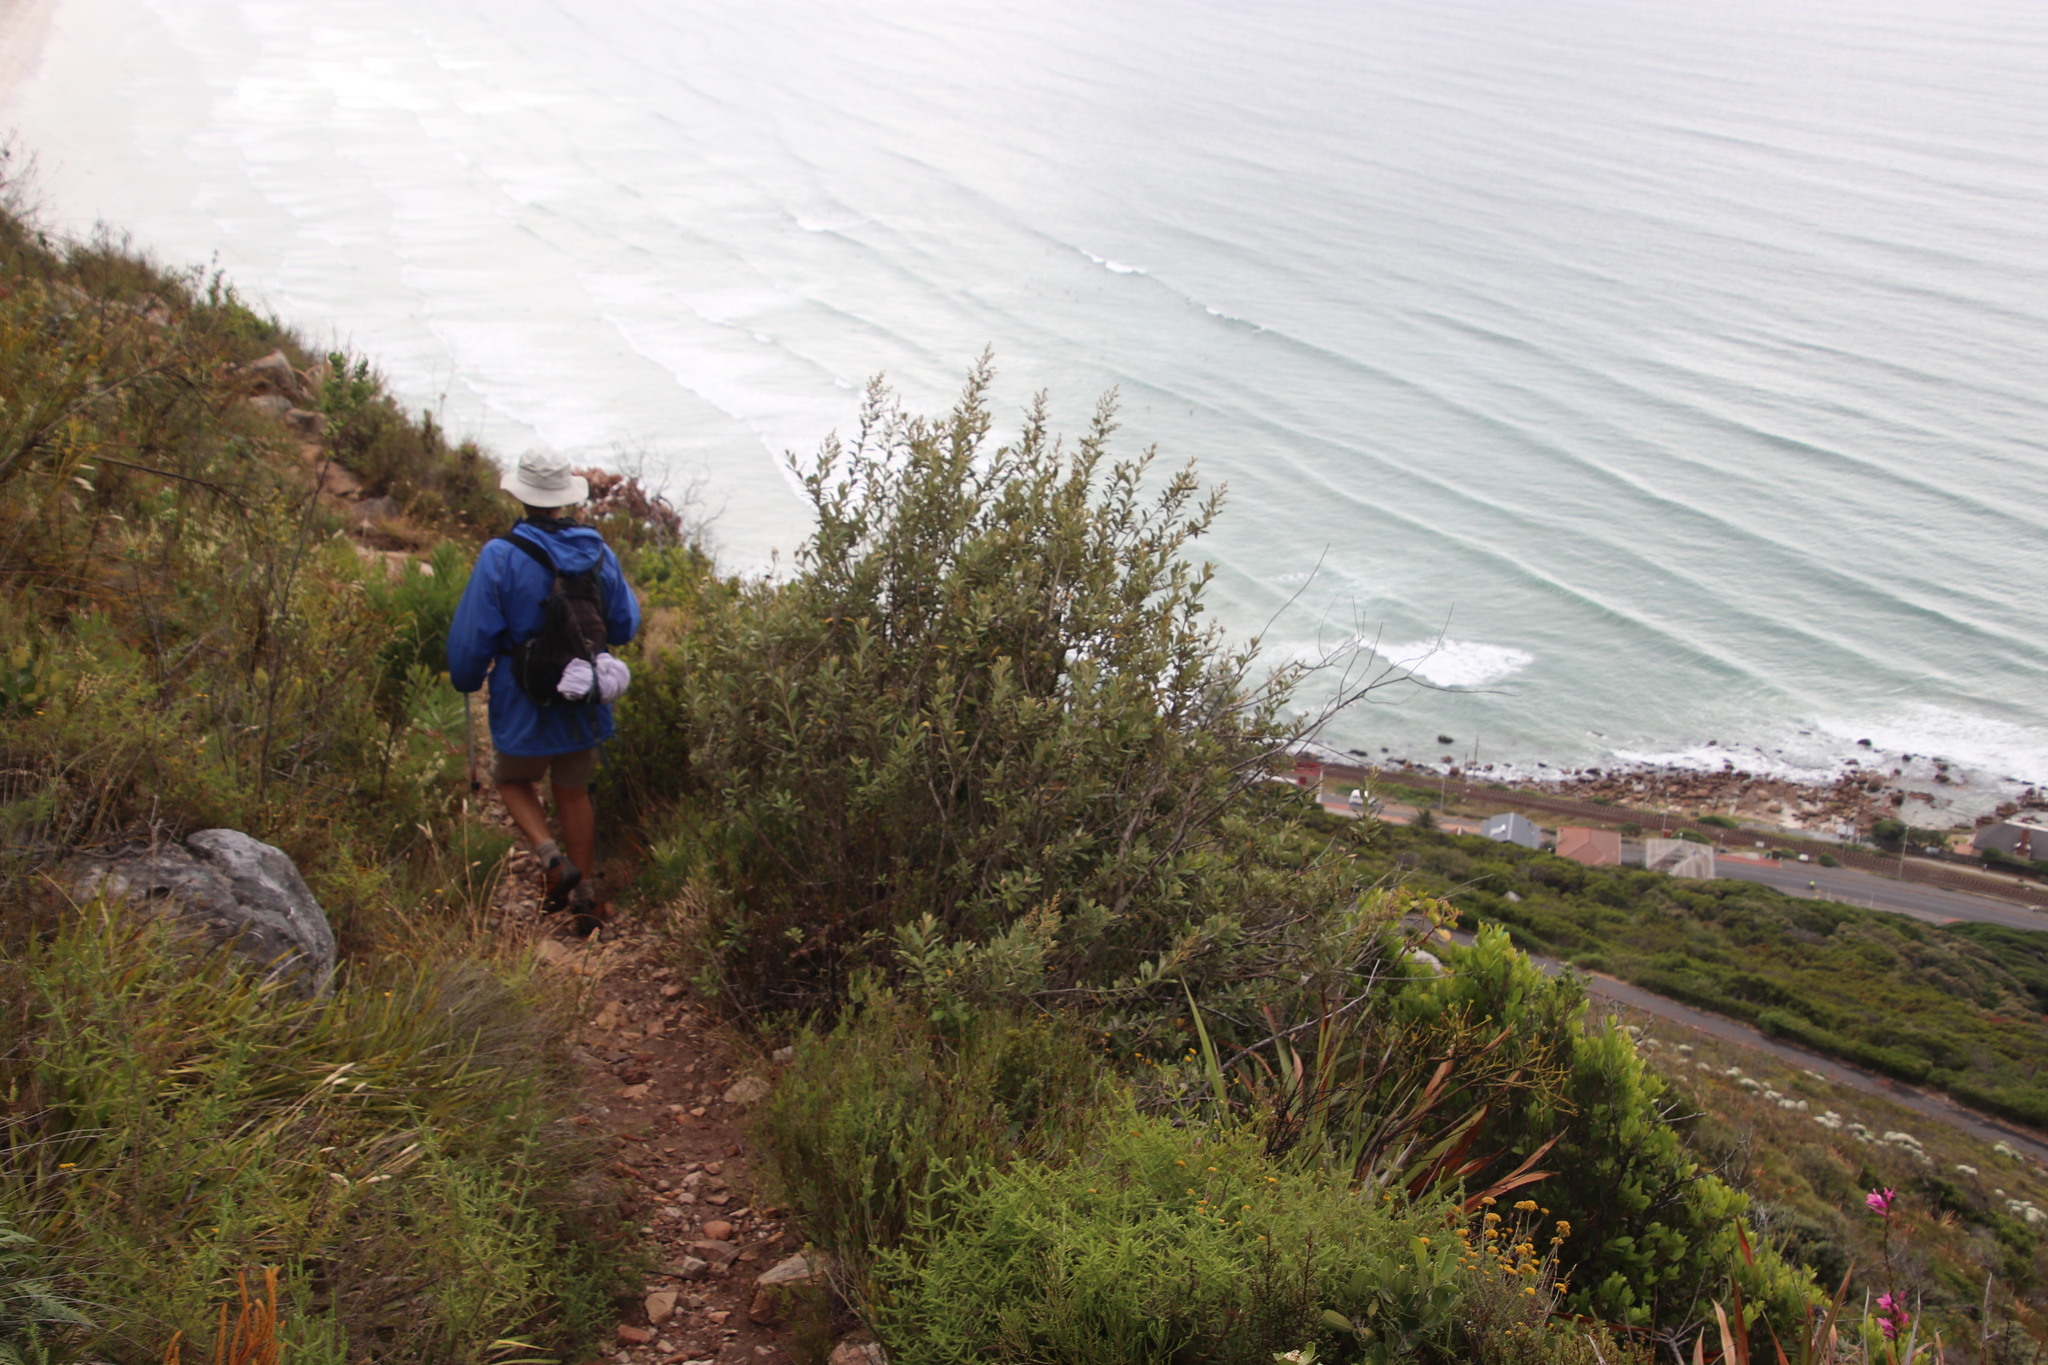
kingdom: Plantae
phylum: Tracheophyta
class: Magnoliopsida
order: Asterales
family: Asteraceae
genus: Tarchonanthus
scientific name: Tarchonanthus littoralis
